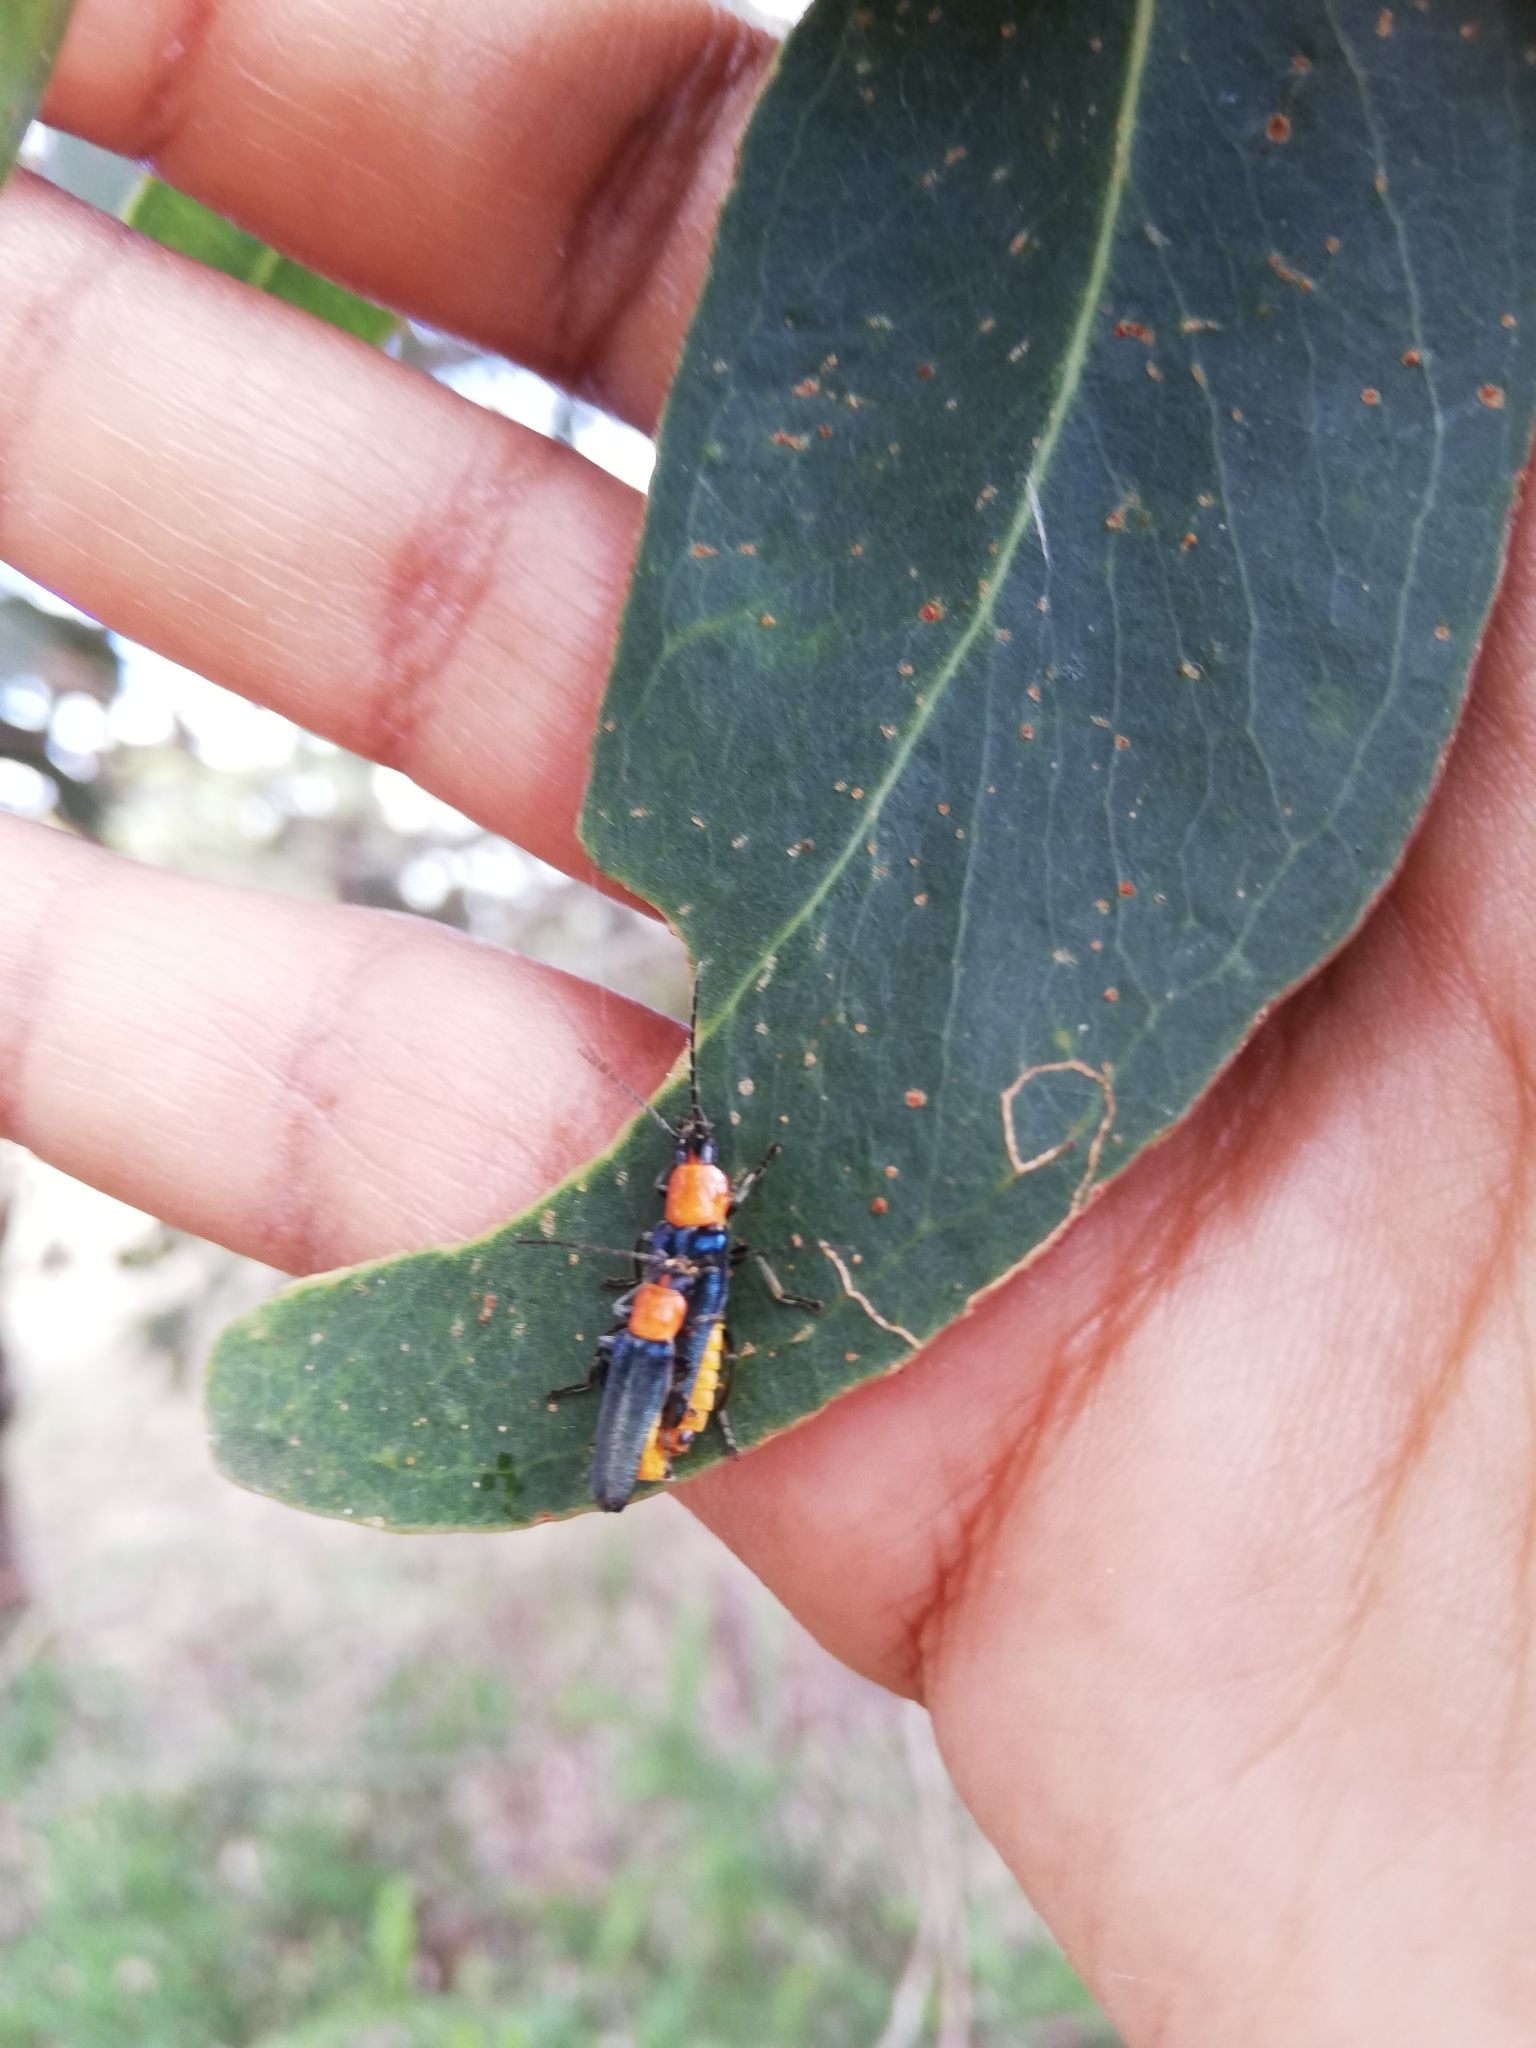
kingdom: Animalia
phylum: Arthropoda
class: Insecta
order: Coleoptera
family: Cantharidae
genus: Chauliognathus
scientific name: Chauliognathus
